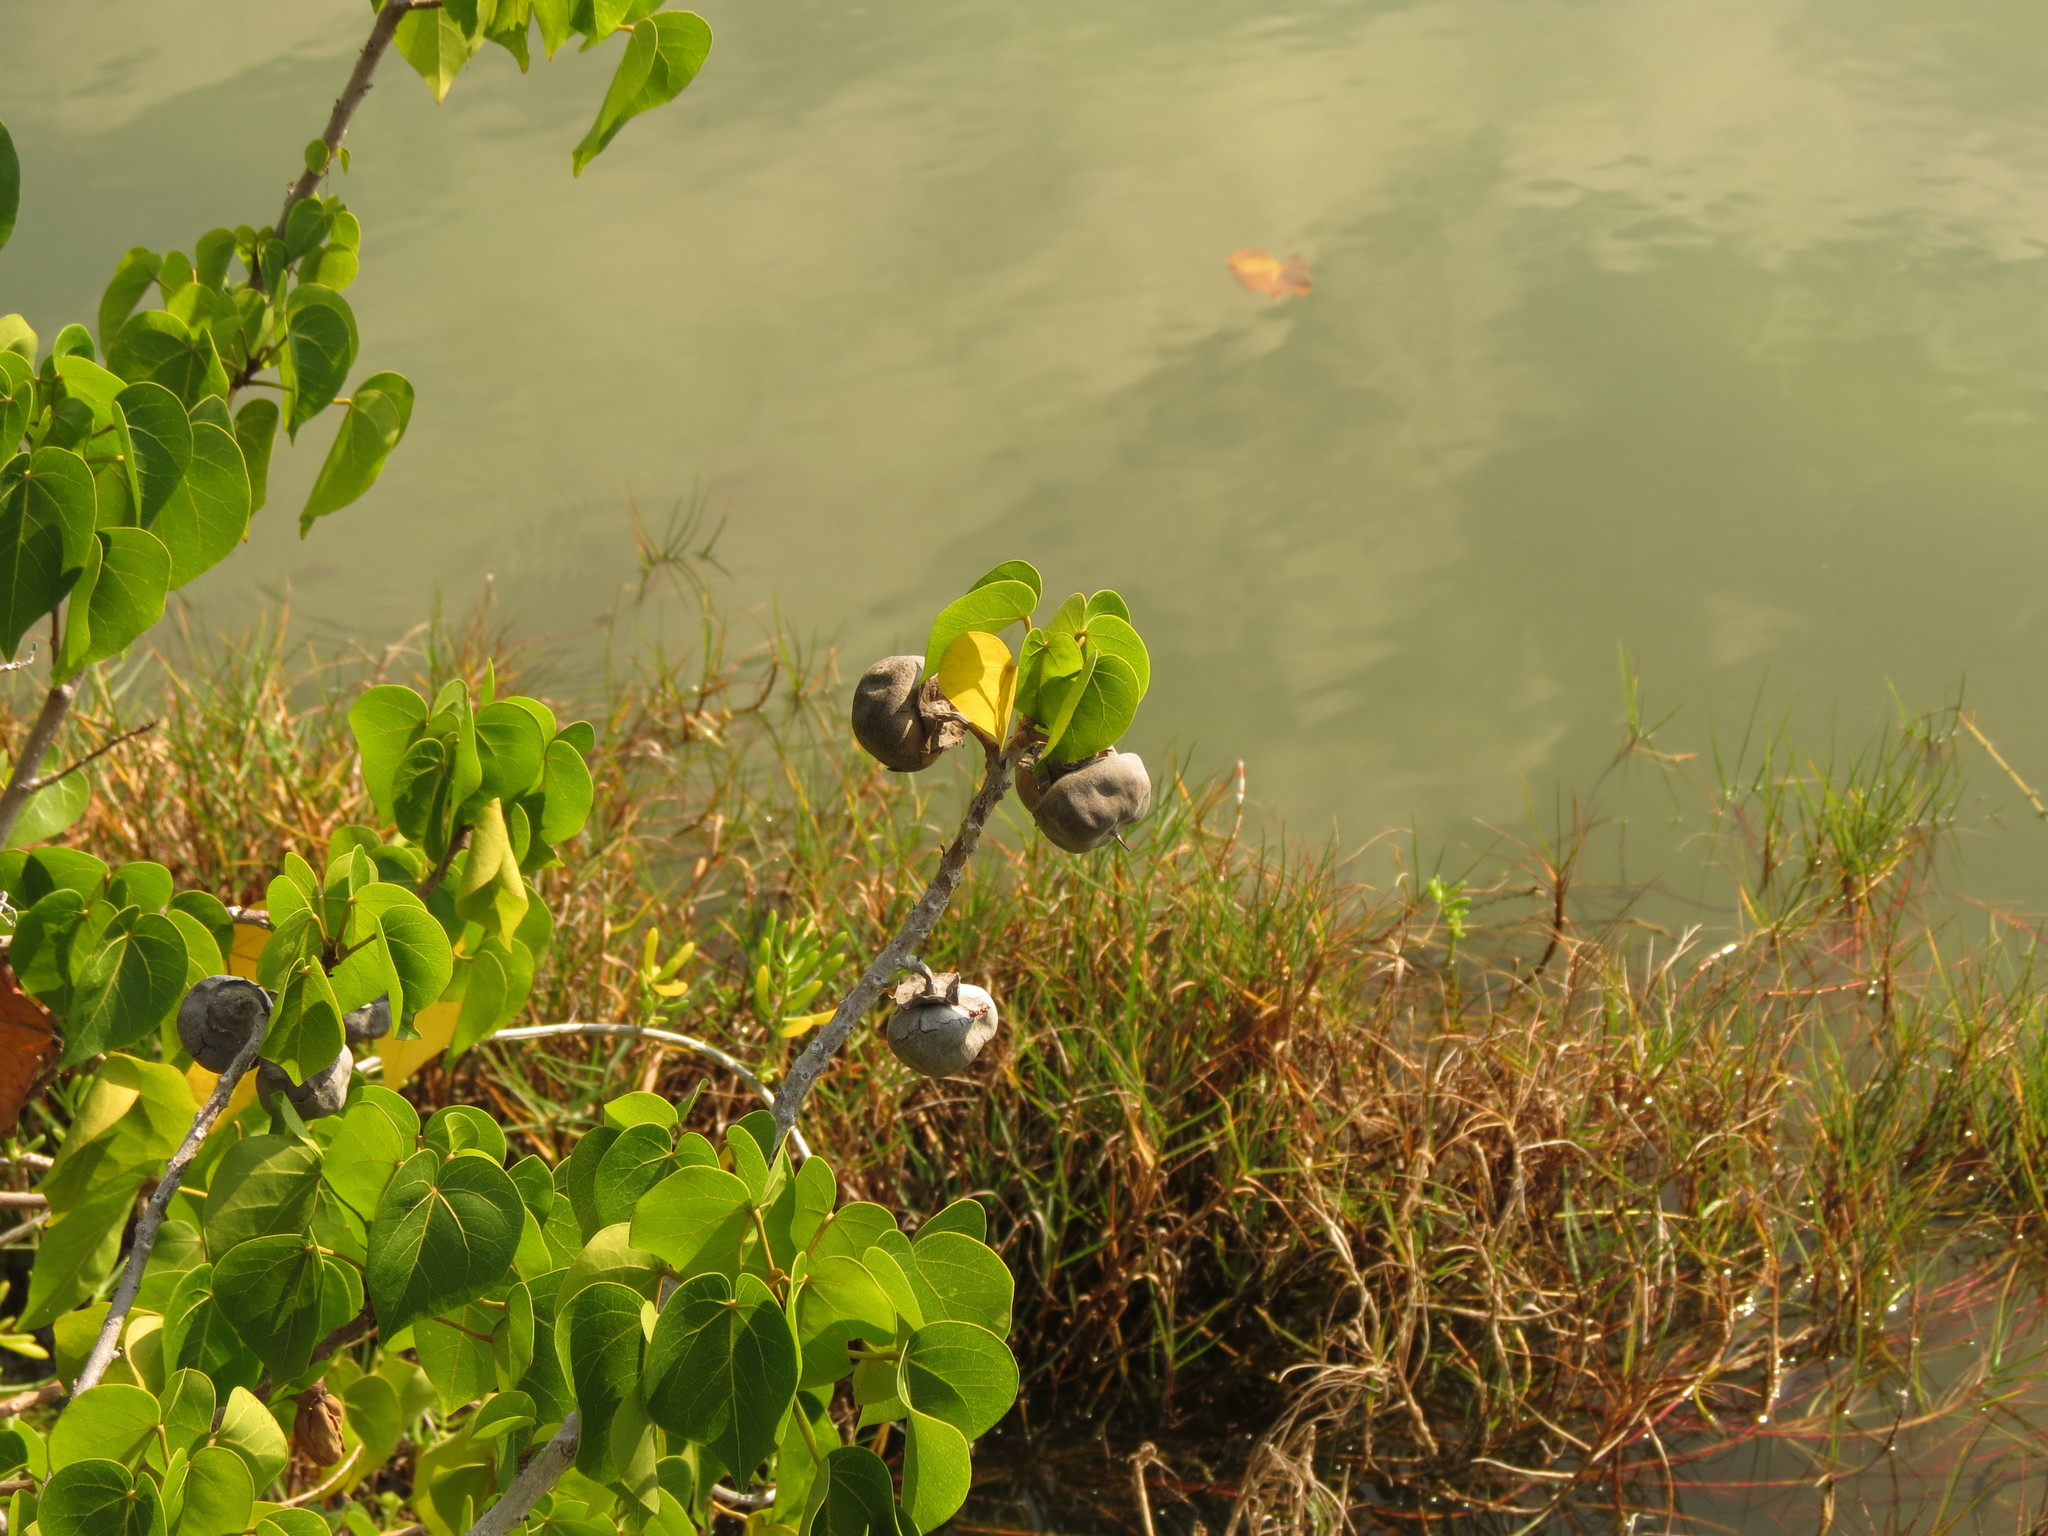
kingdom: Plantae
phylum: Tracheophyta
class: Magnoliopsida
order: Malvales
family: Malvaceae
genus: Thespesia
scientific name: Thespesia populnea
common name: Seaside mahoe
